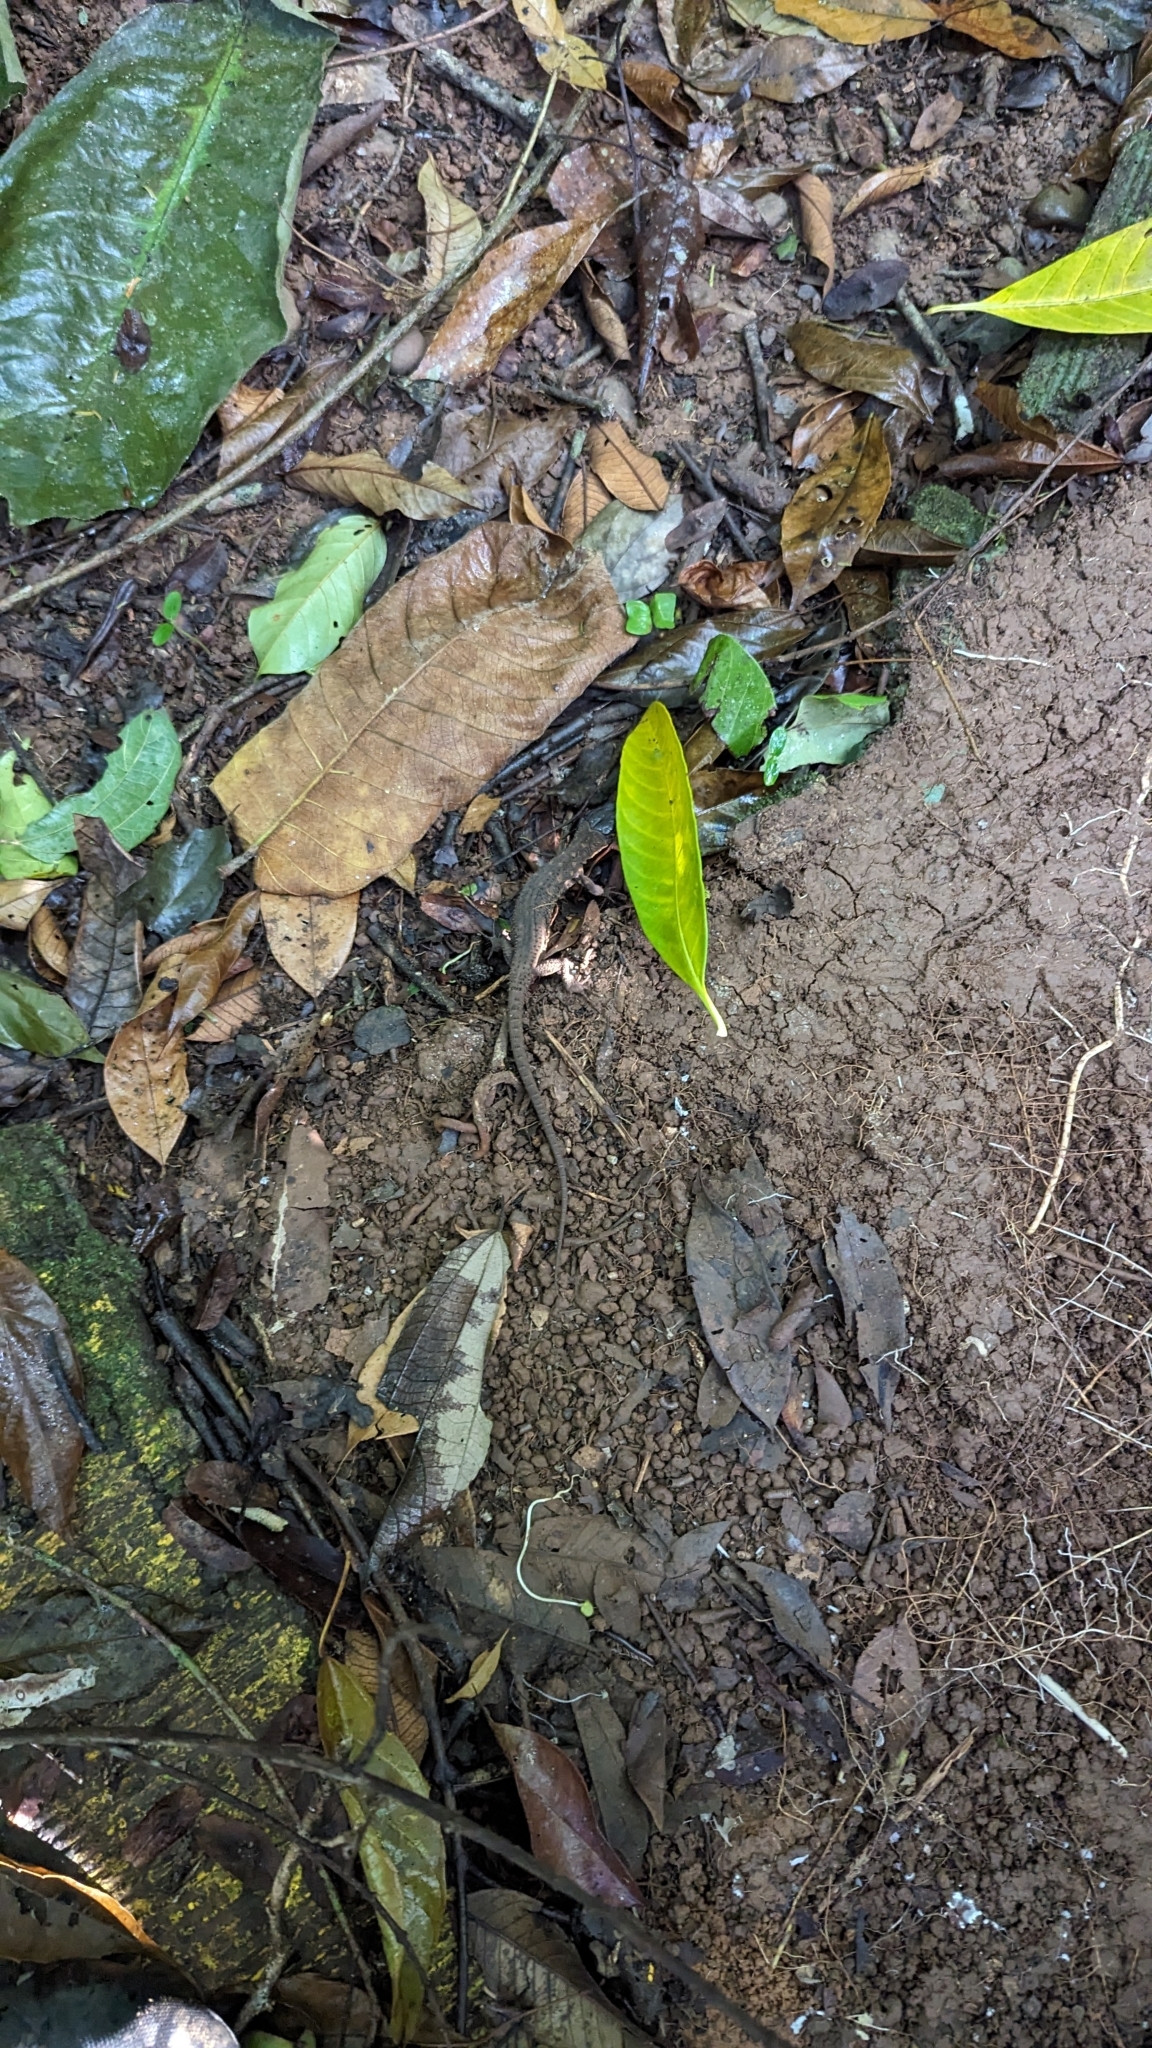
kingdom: Animalia
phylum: Chordata
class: Squamata
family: Xantusiidae
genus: Lepidophyma
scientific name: Lepidophyma flavimaculatum
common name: Yellow-spotted night lizard
